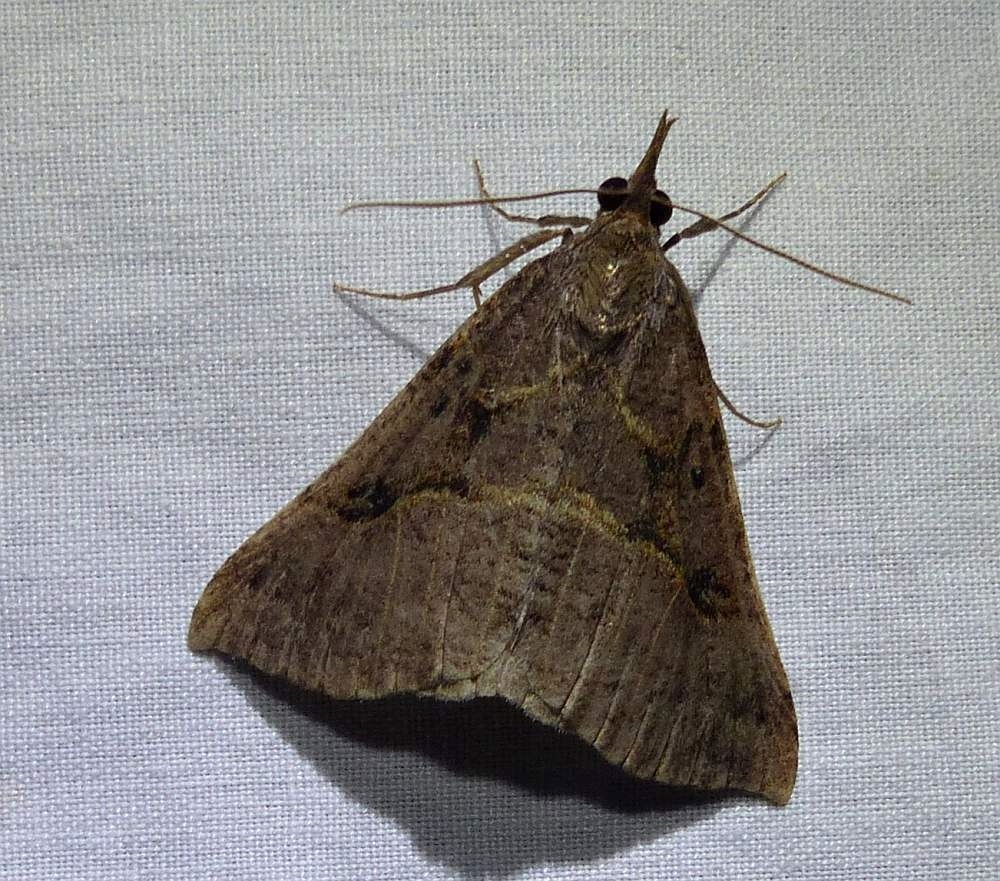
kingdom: Animalia
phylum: Arthropoda
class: Insecta
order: Lepidoptera
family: Erebidae
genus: Hypena
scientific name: Hypena edictalis
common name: Large snout
